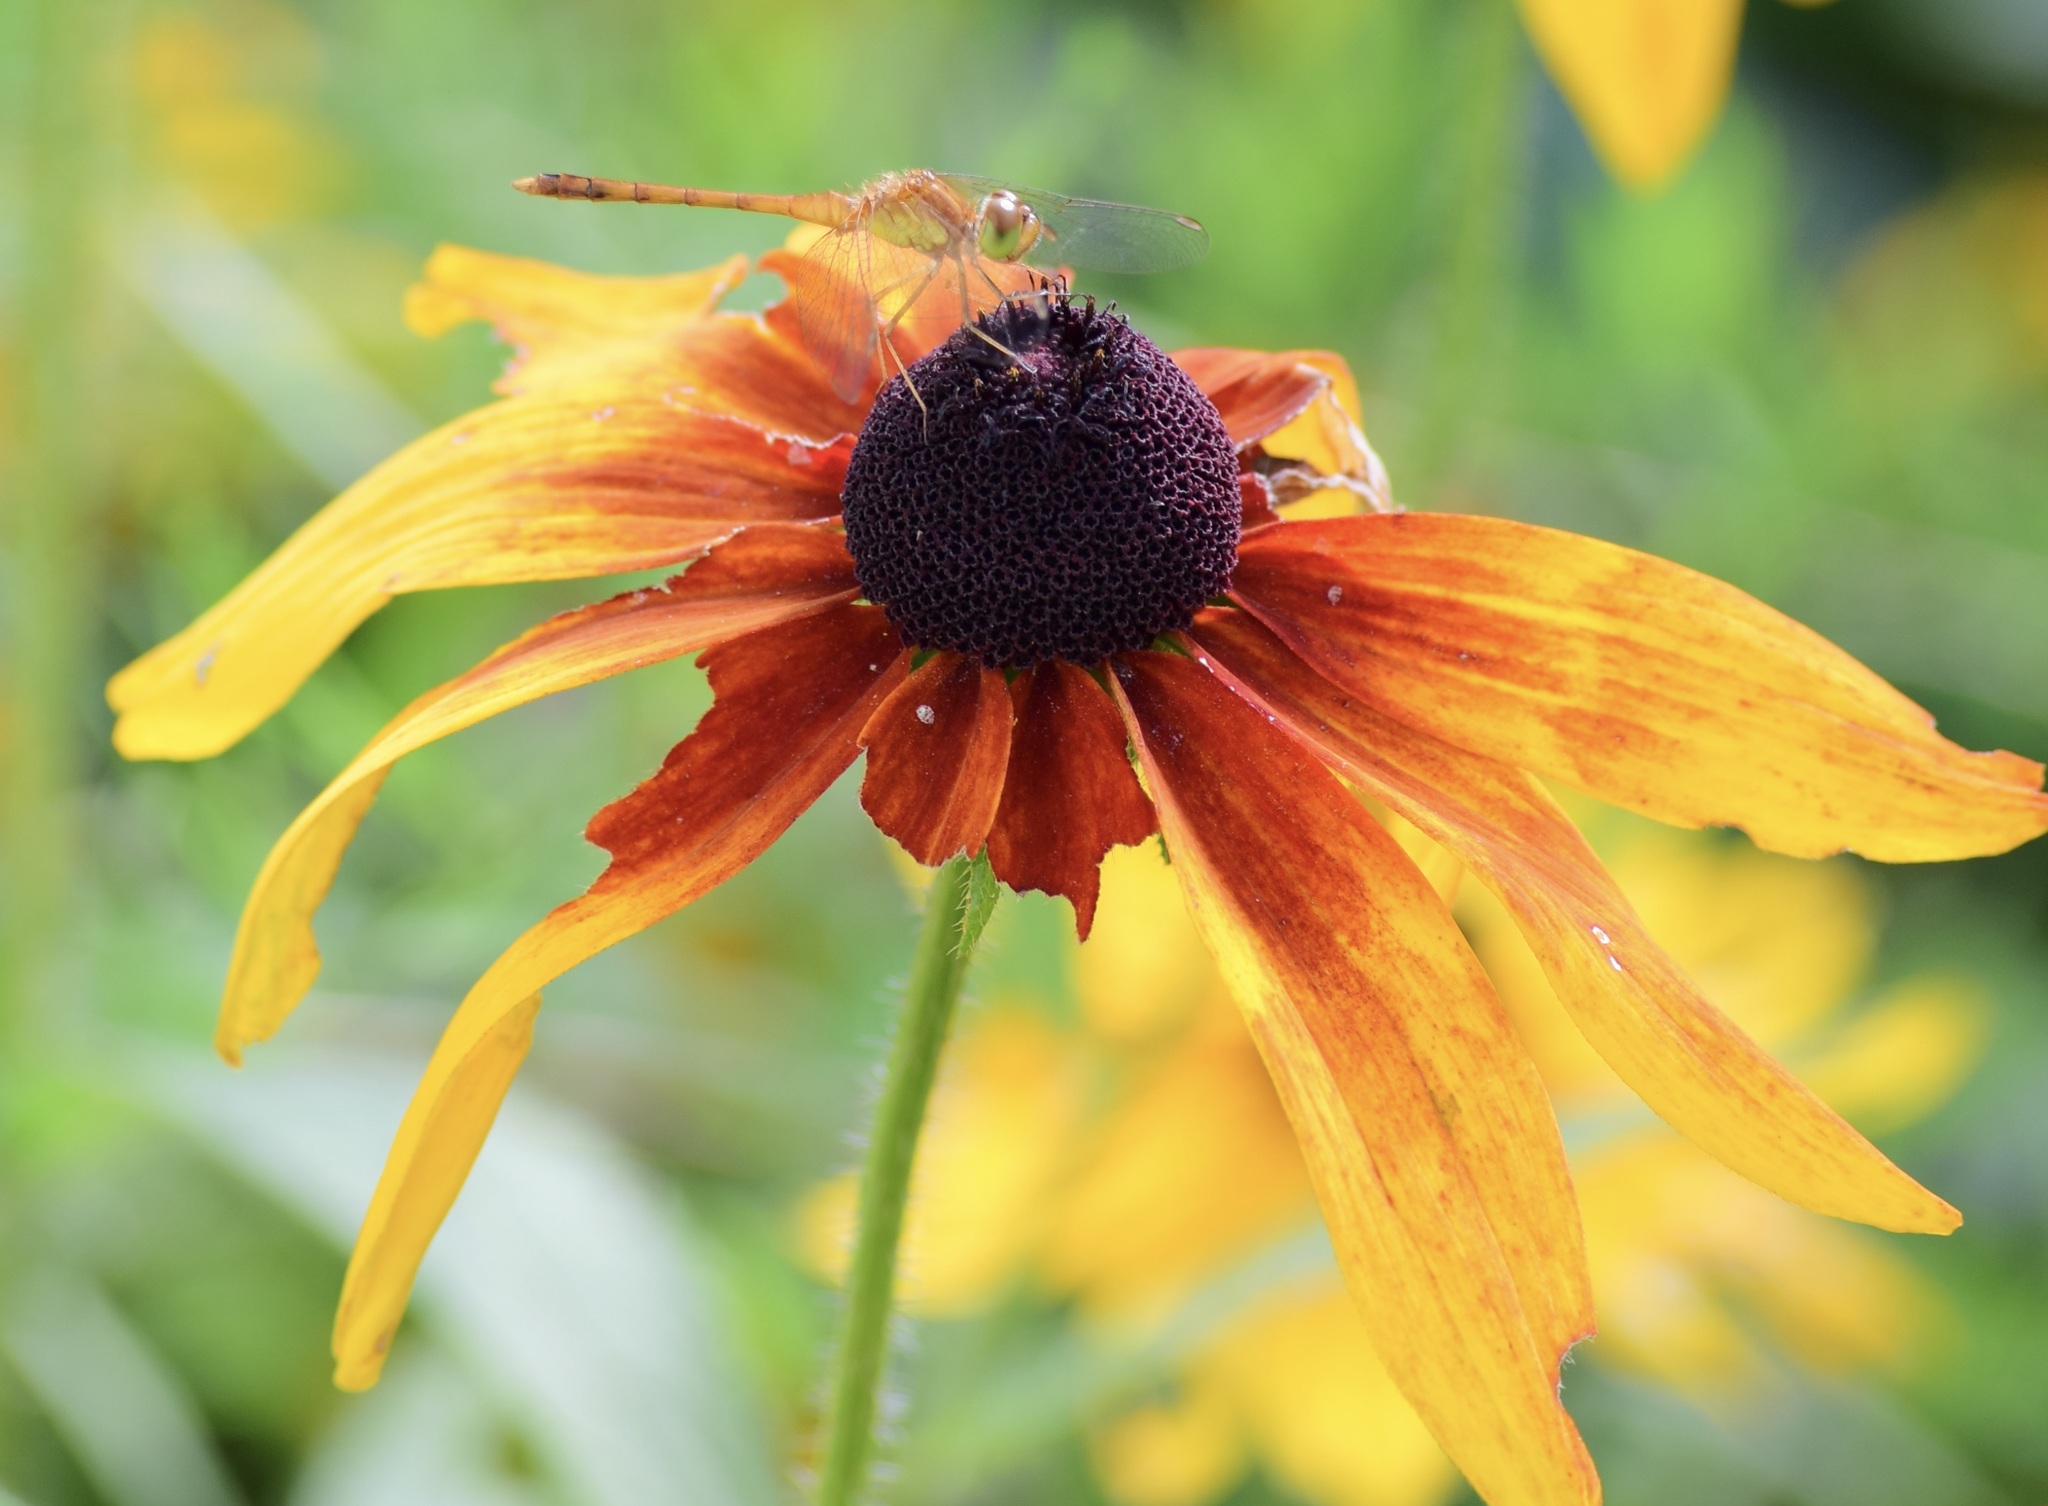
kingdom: Animalia
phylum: Arthropoda
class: Insecta
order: Odonata
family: Libellulidae
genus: Sympetrum
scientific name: Sympetrum vicinum
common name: Autumn meadowhawk
